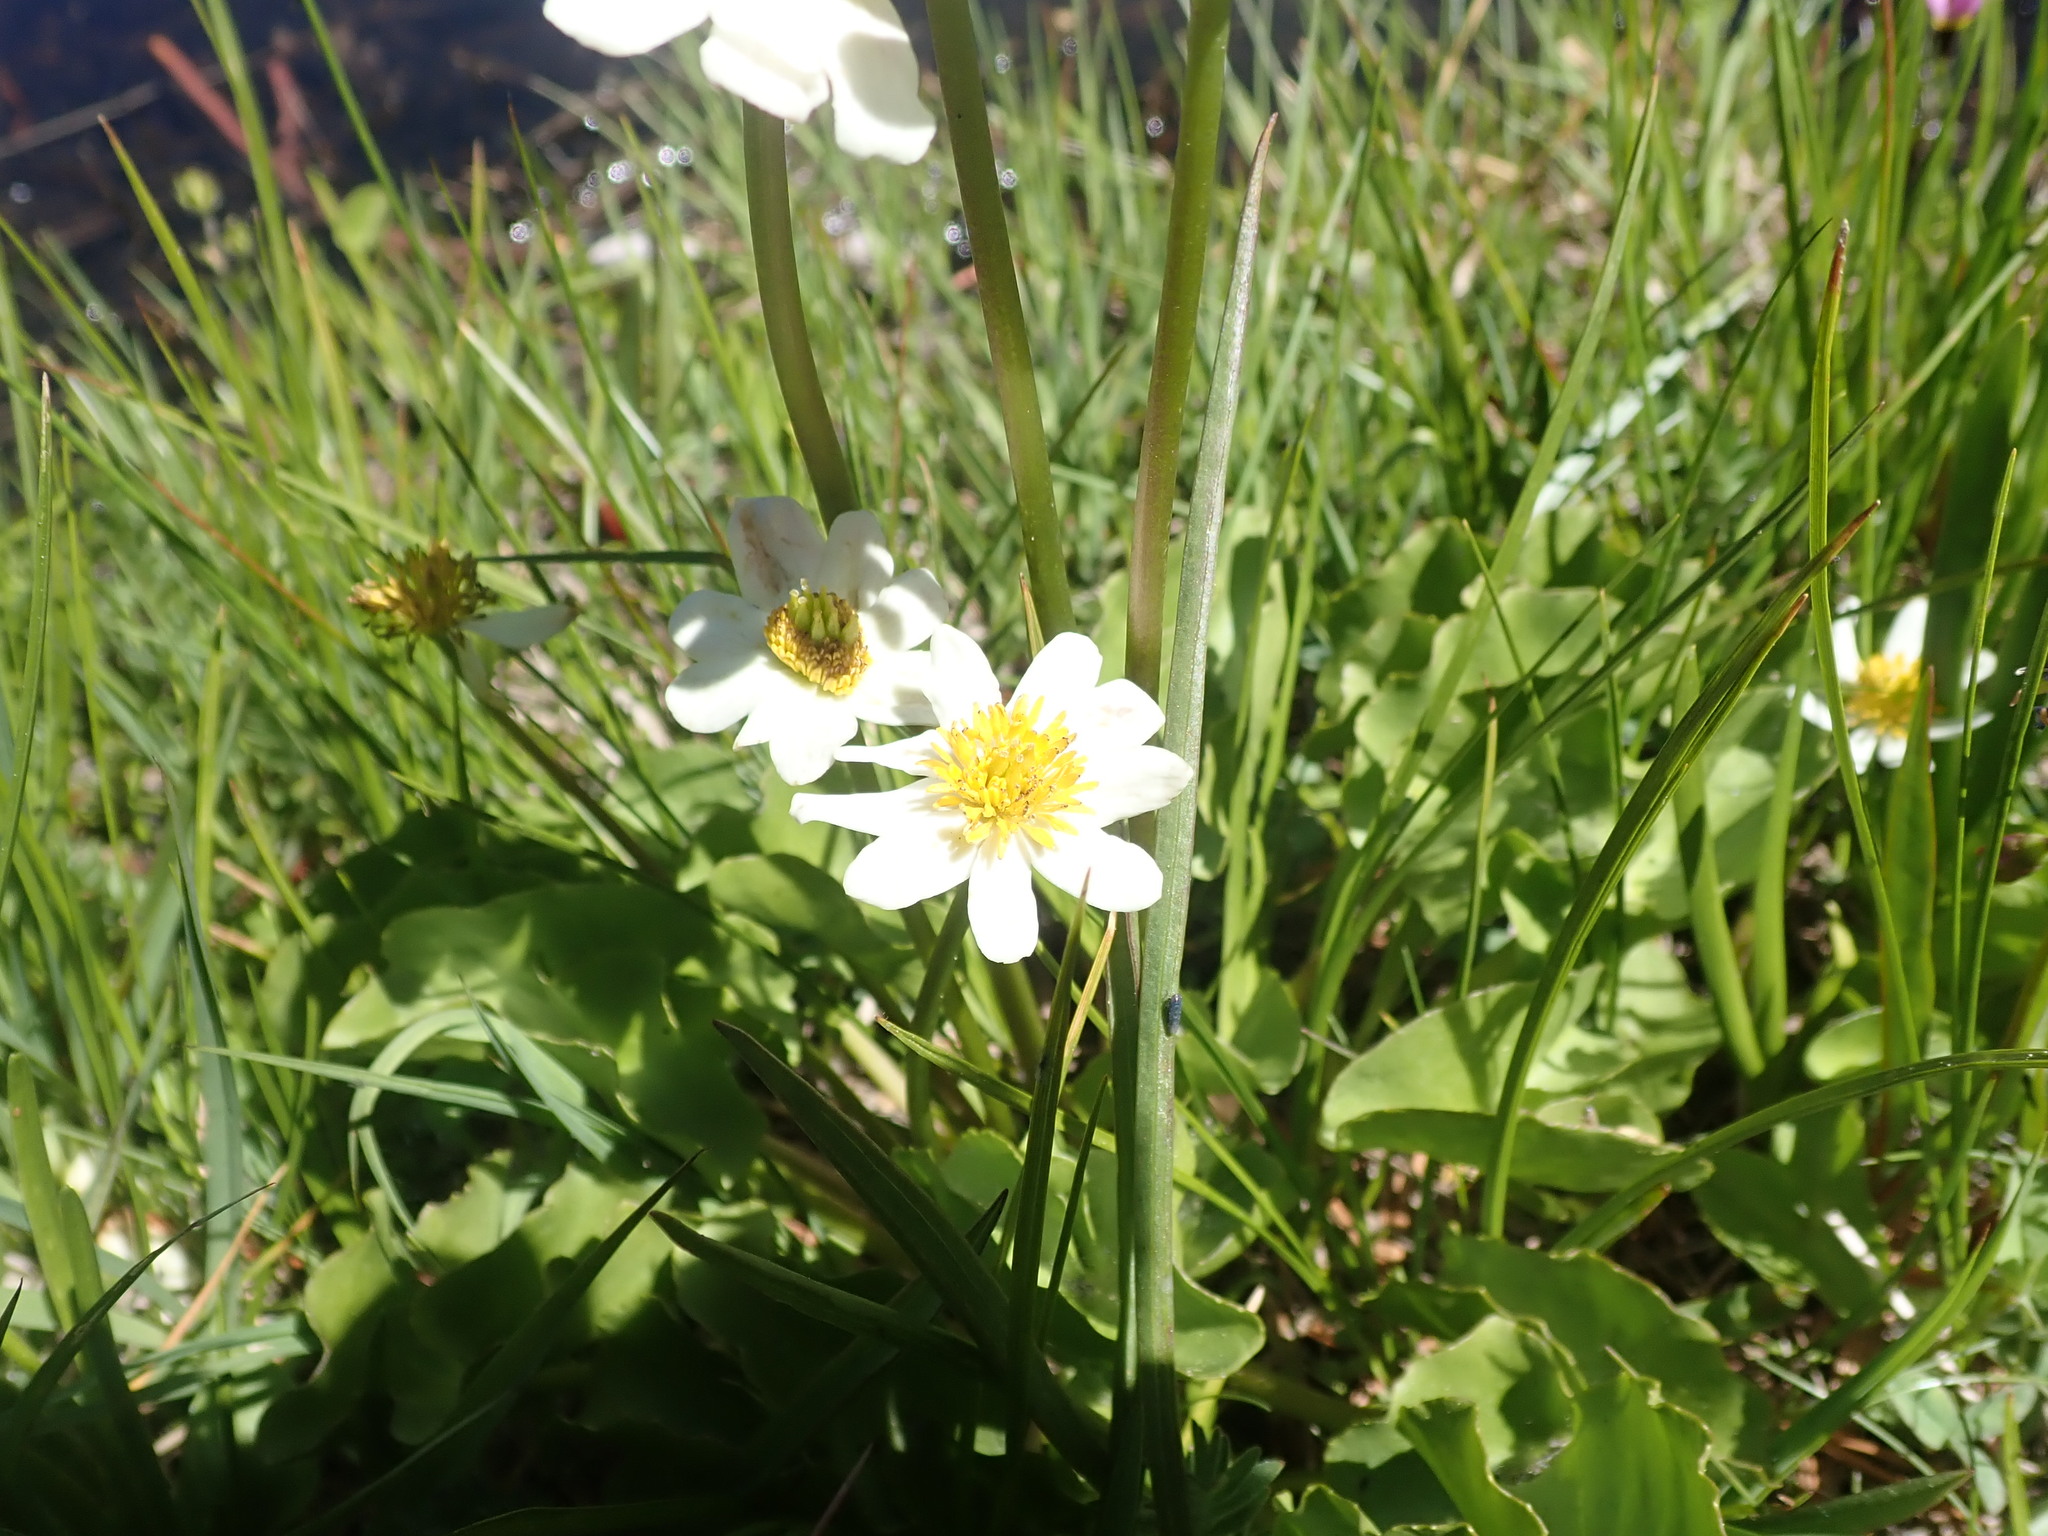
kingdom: Plantae
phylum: Tracheophyta
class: Magnoliopsida
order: Ranunculales
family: Ranunculaceae
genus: Caltha
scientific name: Caltha leptosepala
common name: Elkslip
